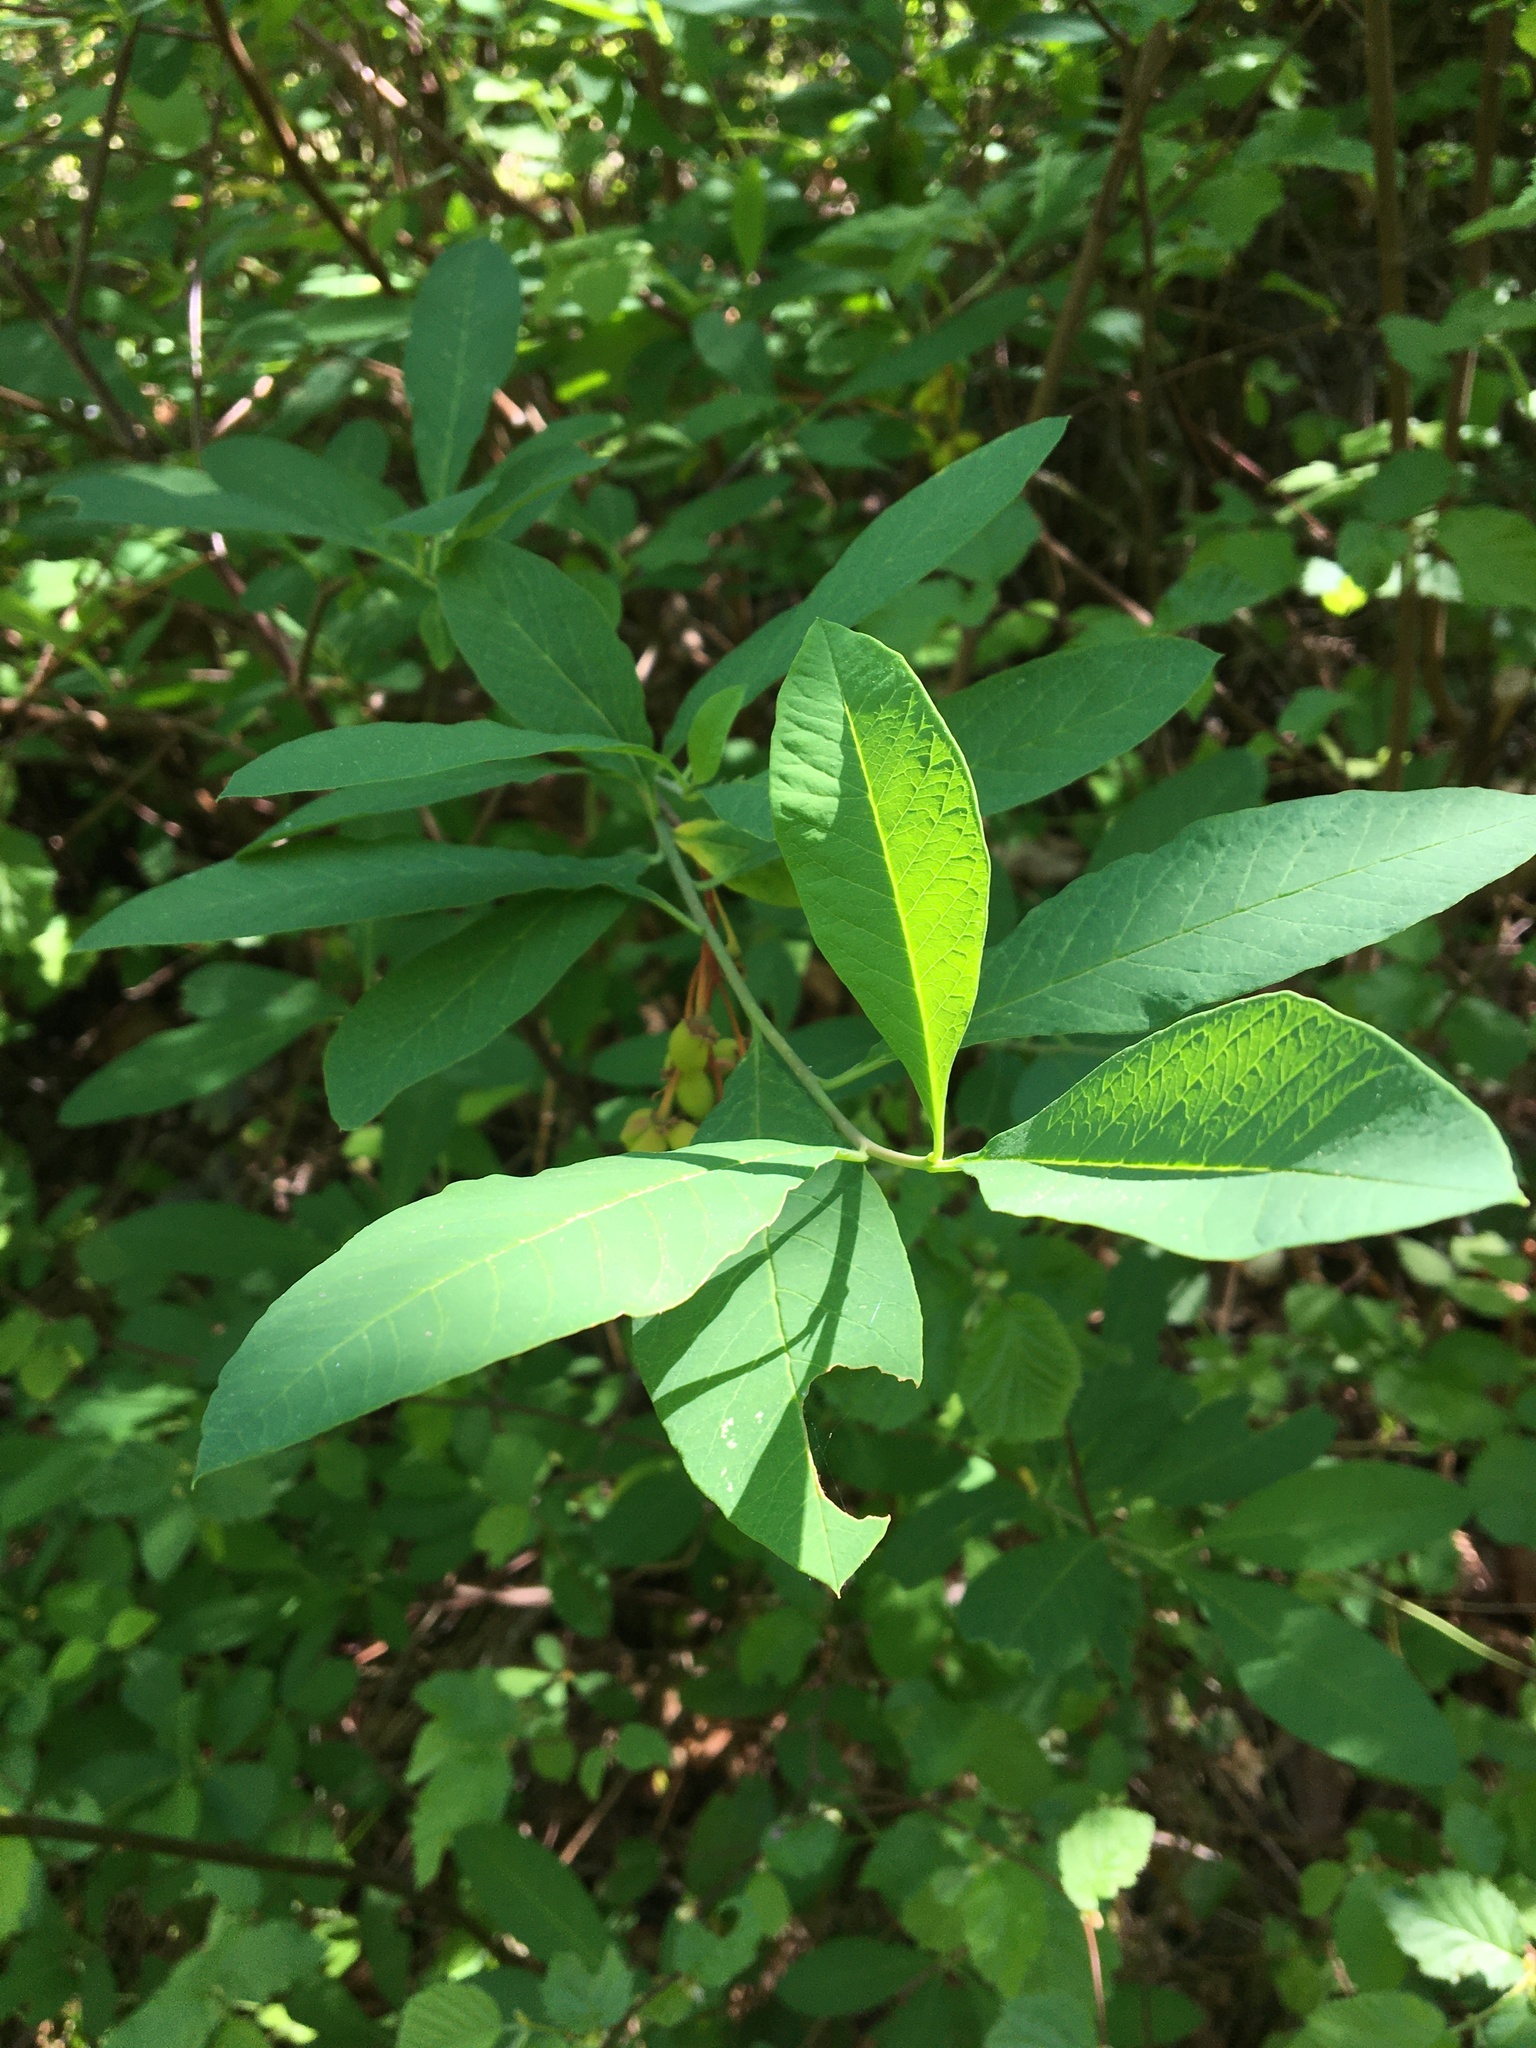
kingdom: Plantae
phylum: Tracheophyta
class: Magnoliopsida
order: Rosales
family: Rosaceae
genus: Oemleria
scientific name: Oemleria cerasiformis
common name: Osoberry
